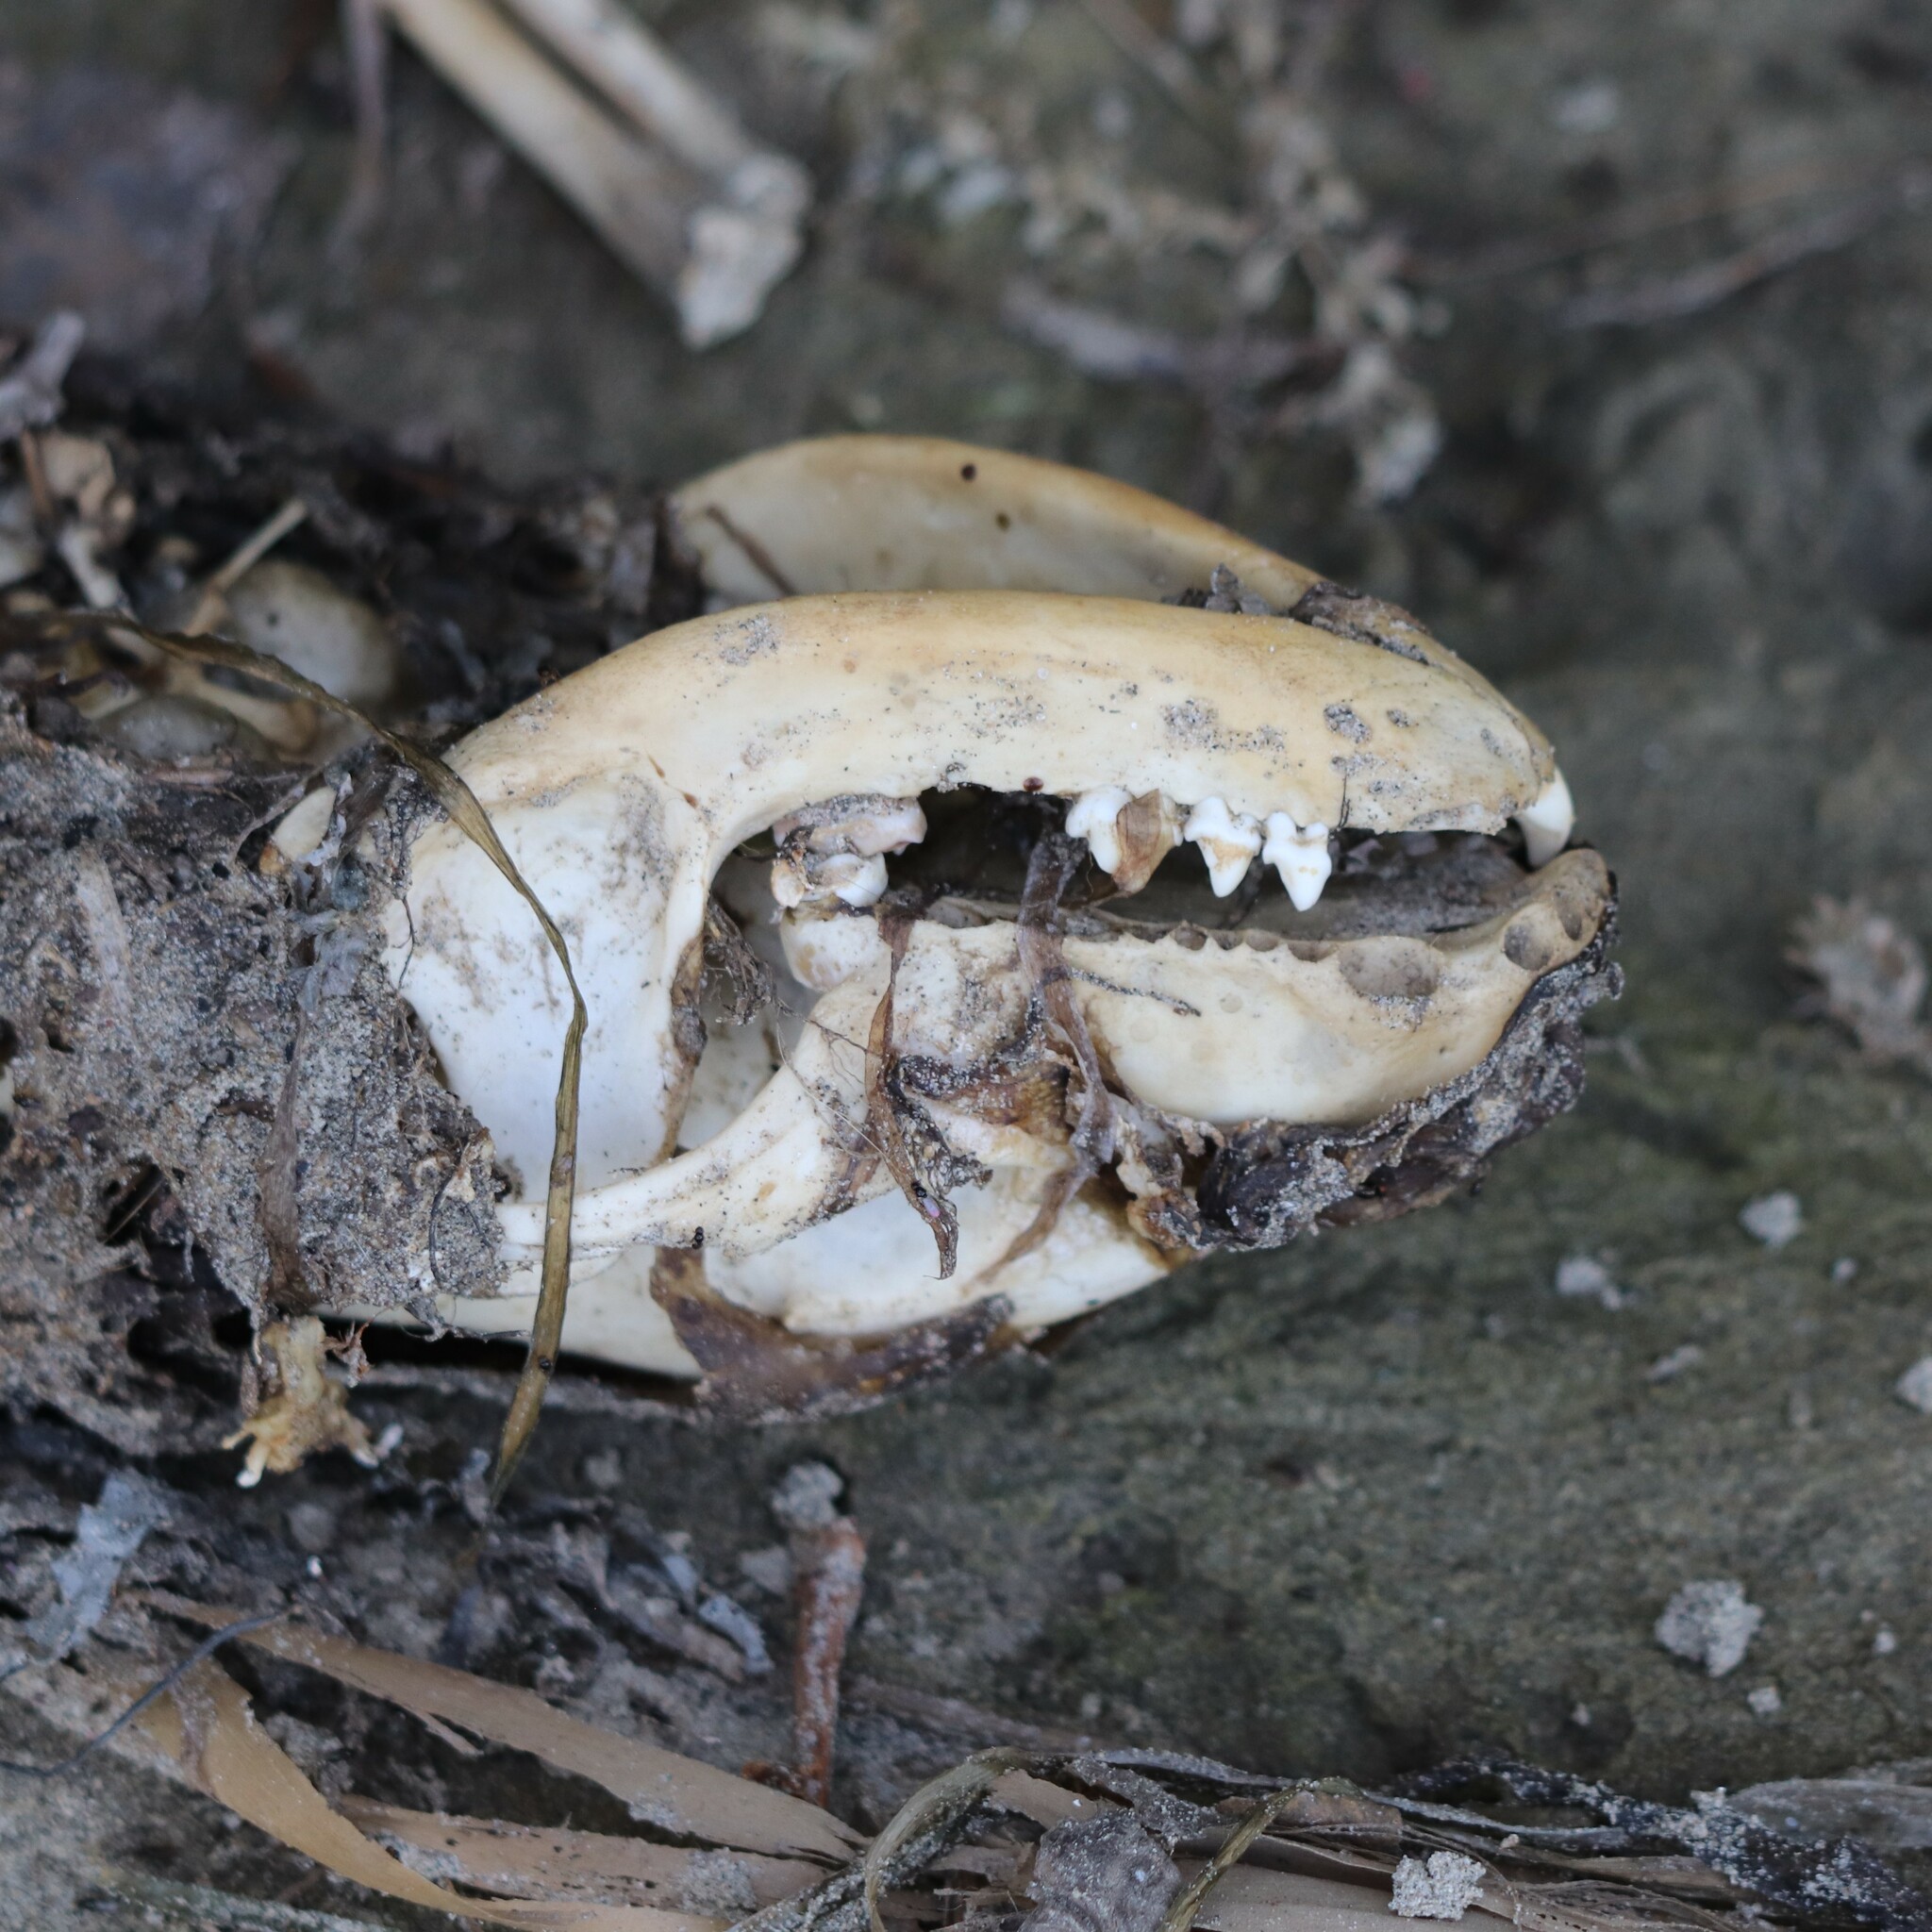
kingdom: Animalia
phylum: Chordata
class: Mammalia
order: Carnivora
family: Procyonidae
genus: Procyon
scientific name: Procyon lotor
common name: Raccoon
